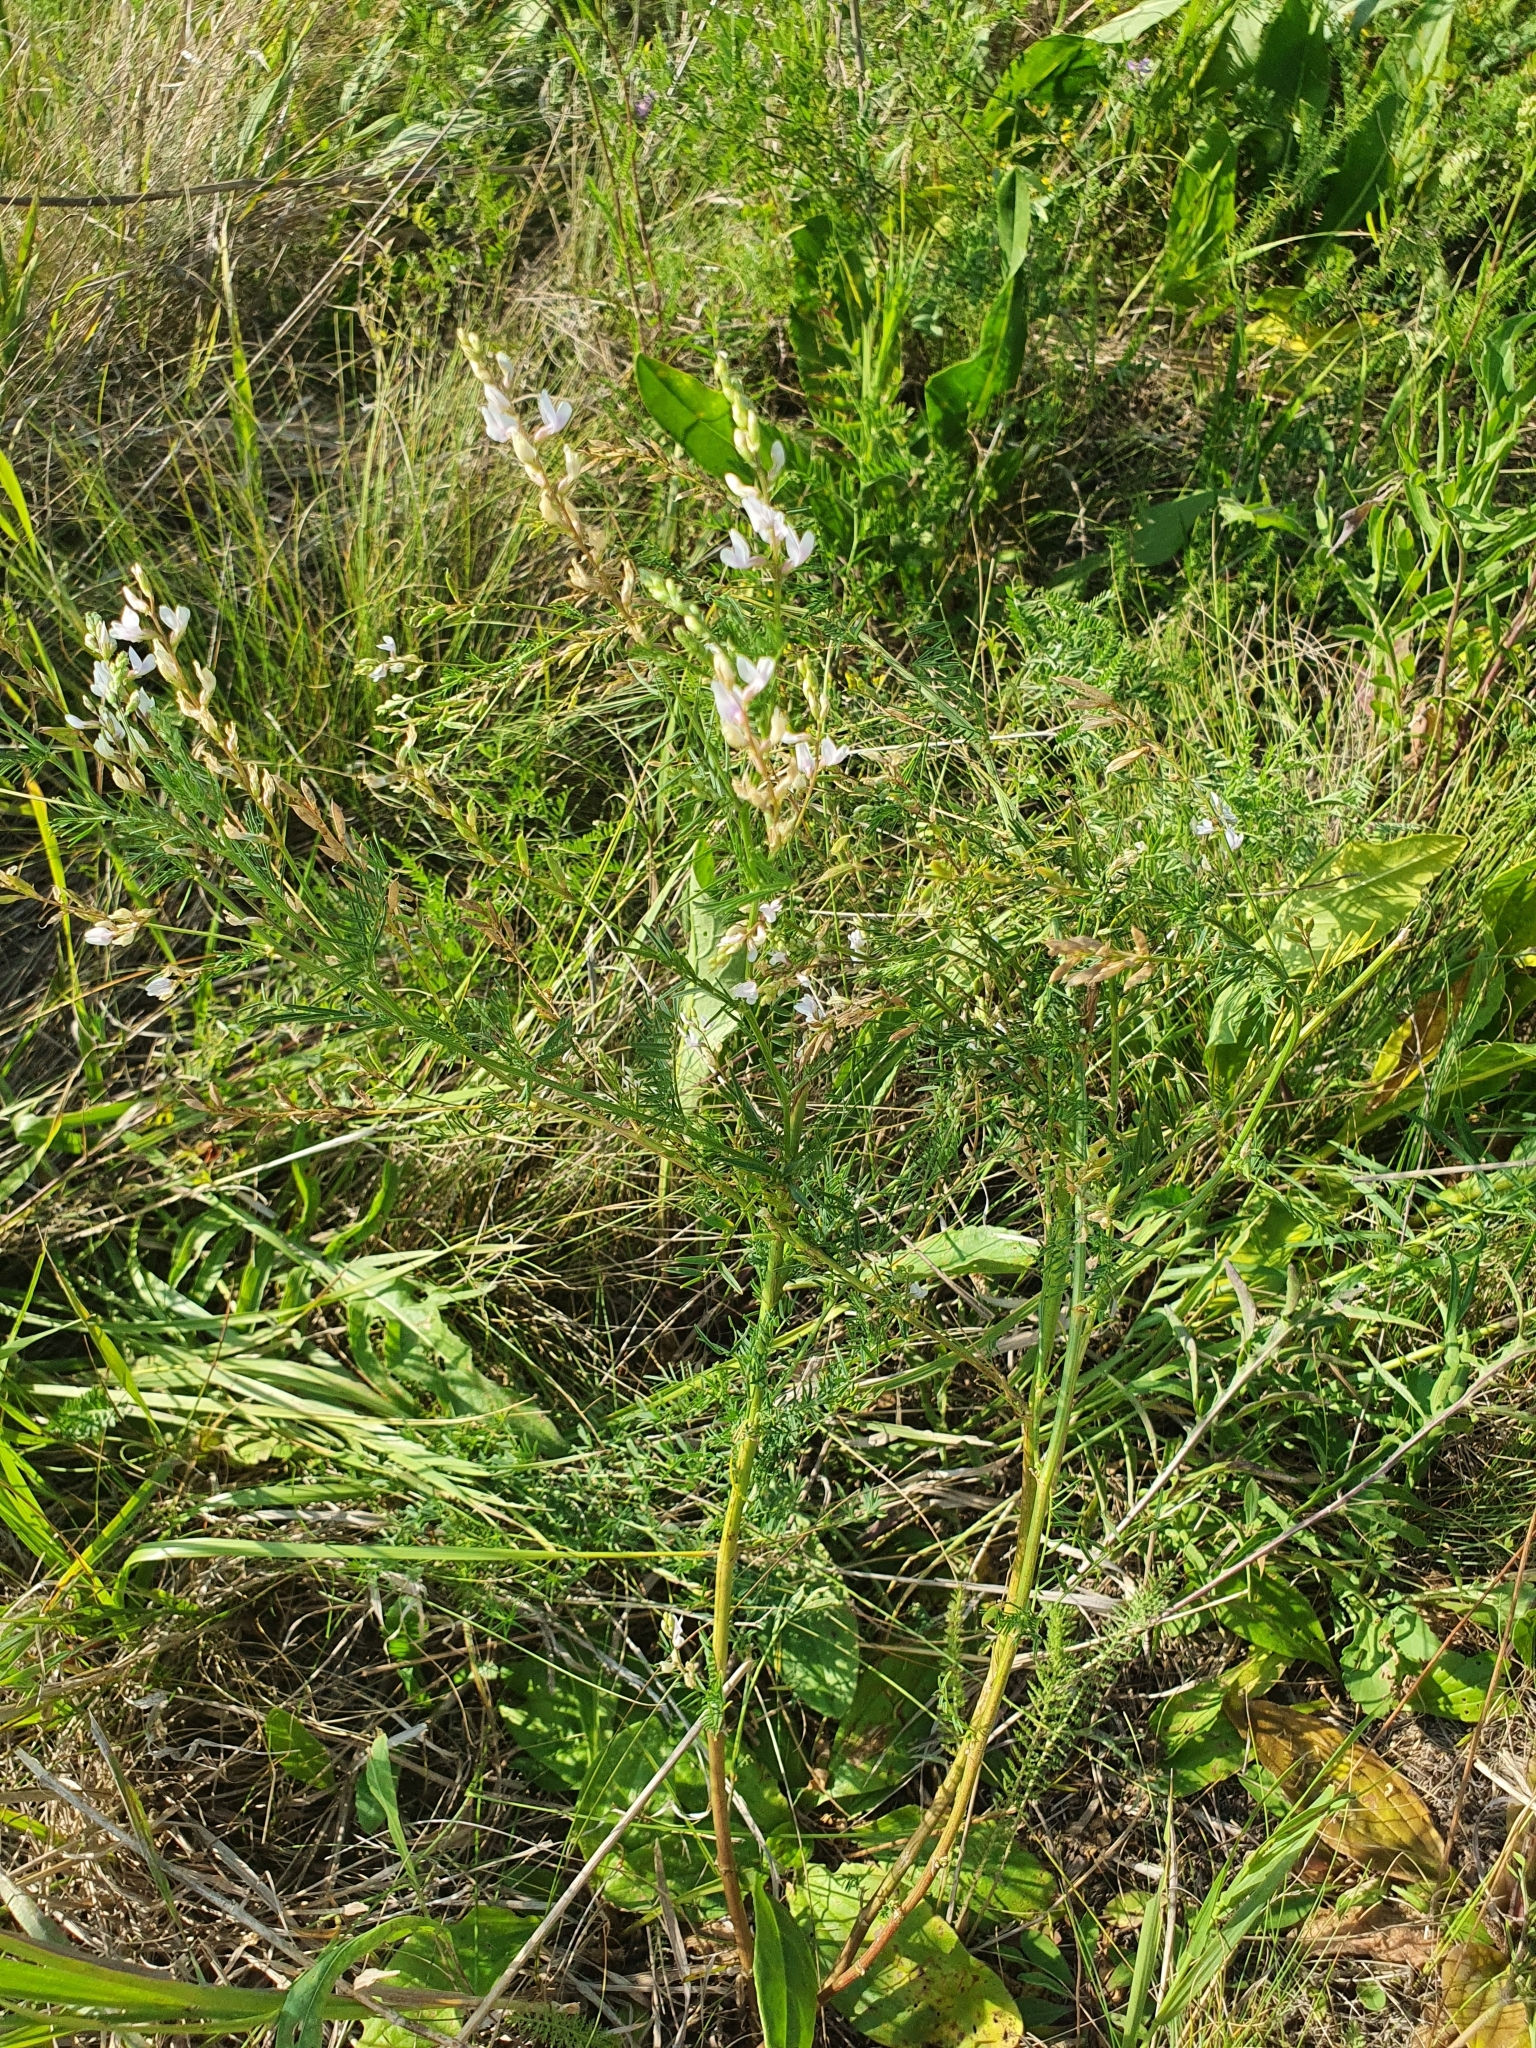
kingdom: Plantae
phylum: Tracheophyta
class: Magnoliopsida
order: Fabales
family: Fabaceae
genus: Astragalus
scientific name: Astragalus sulcatus
